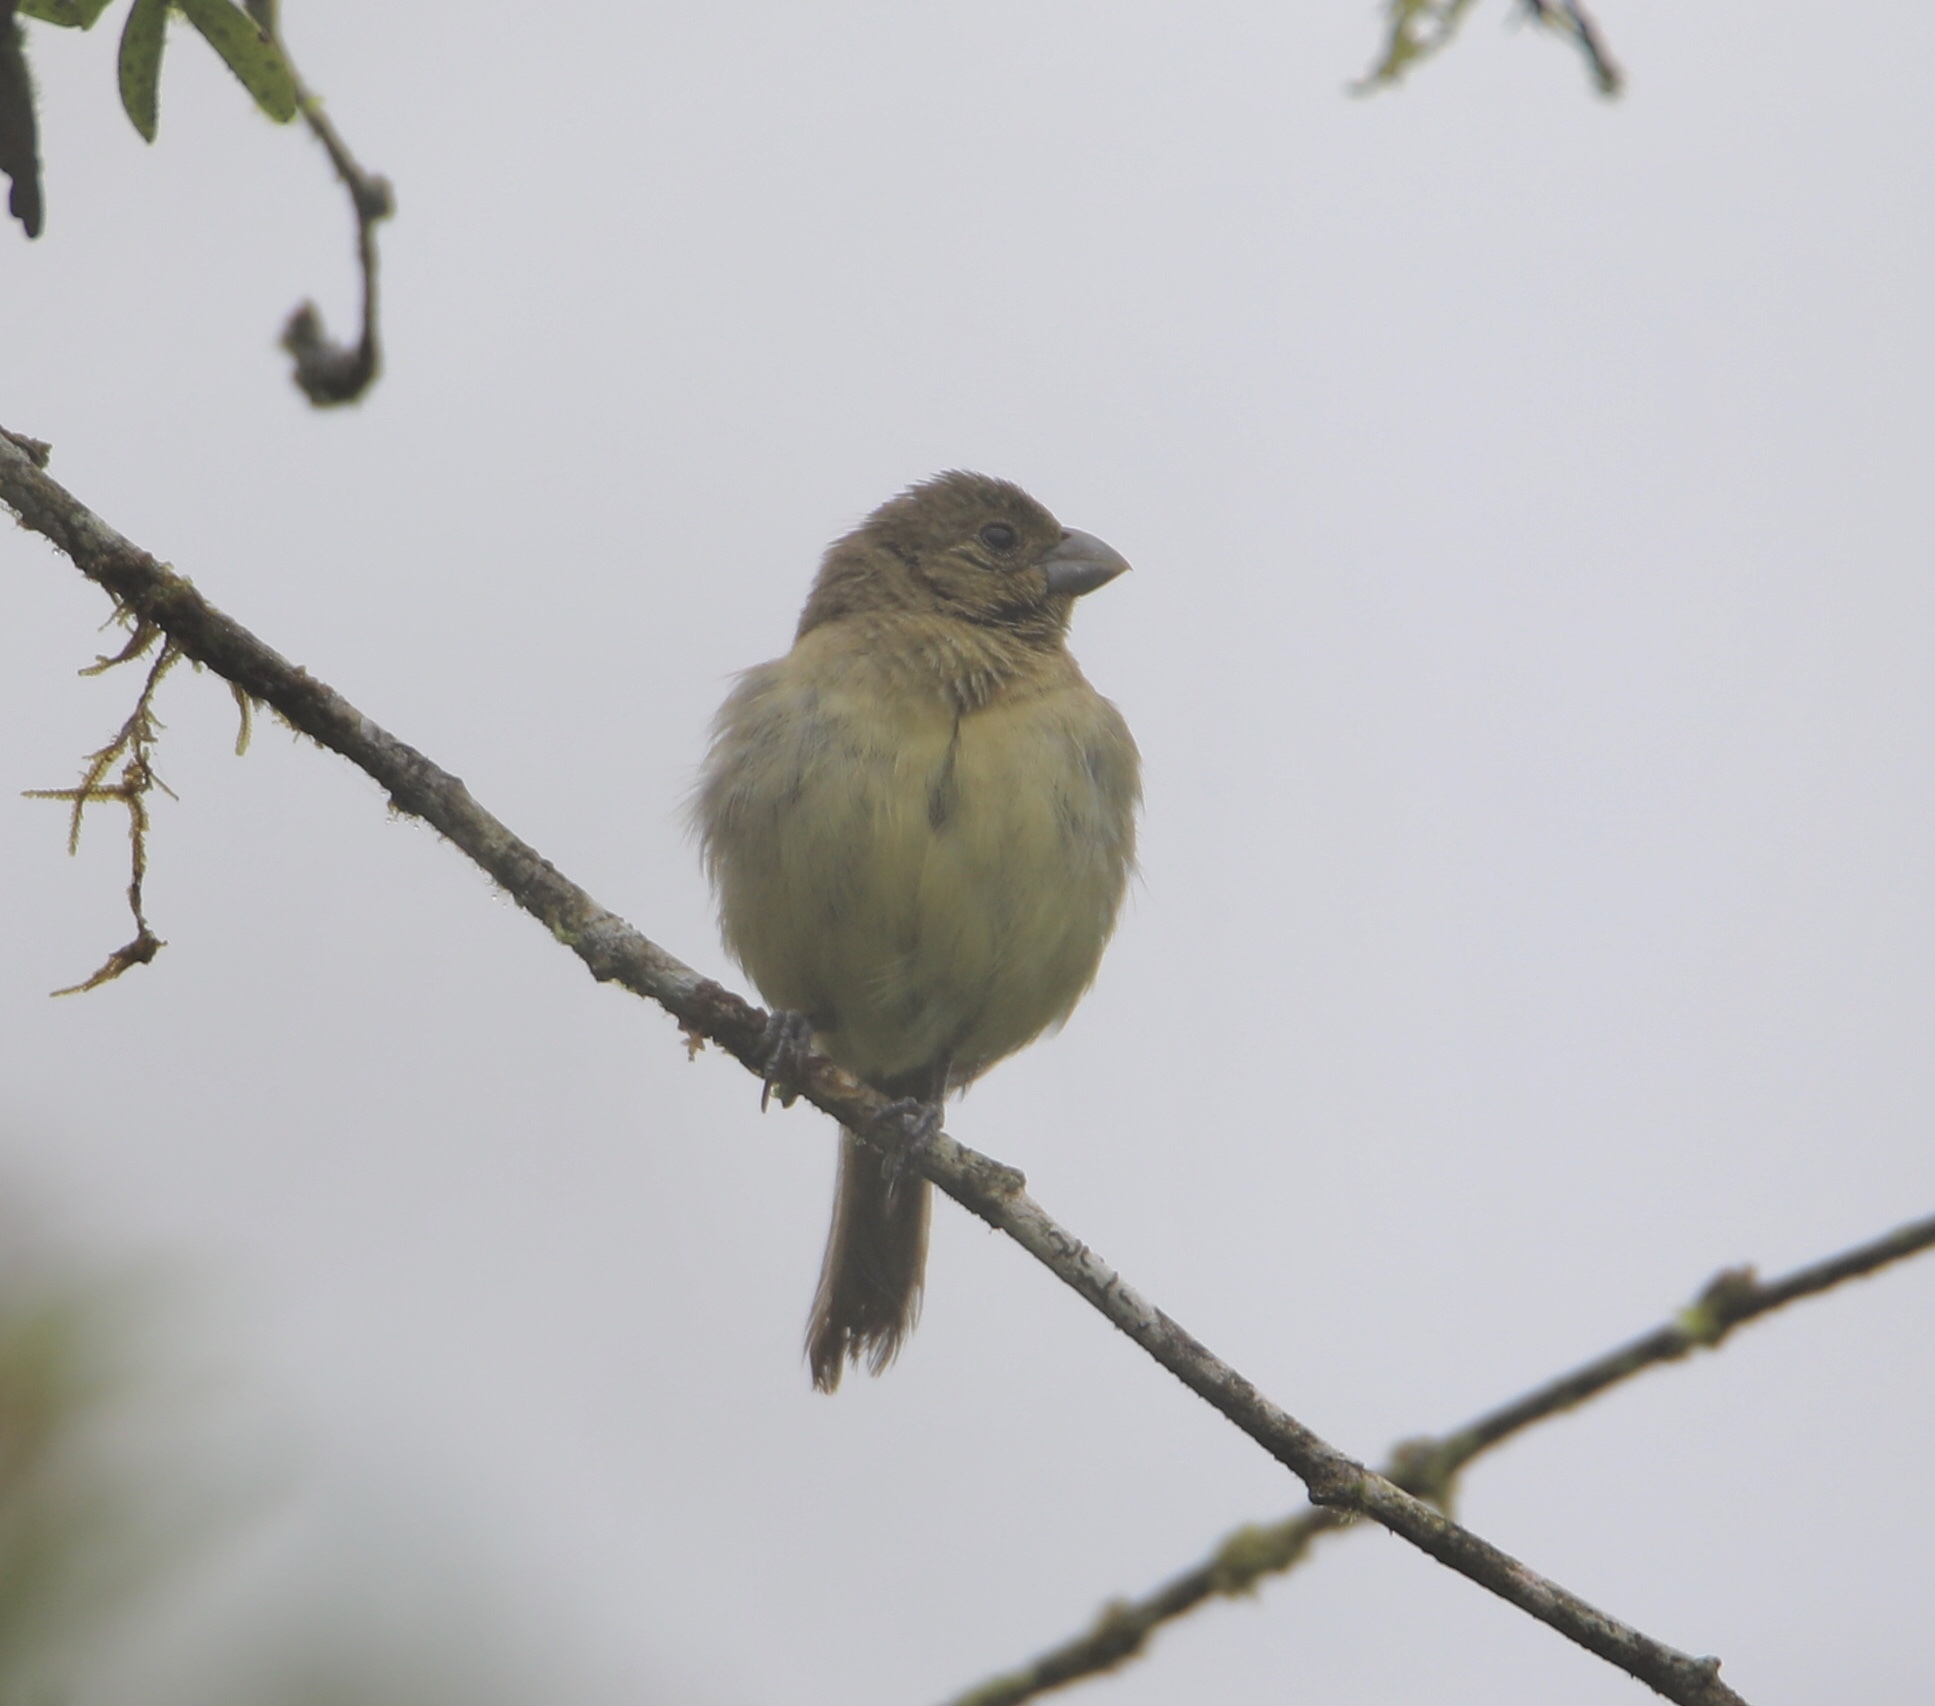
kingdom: Animalia
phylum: Chordata
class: Aves
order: Passeriformes
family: Thraupidae
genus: Sporophila
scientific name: Sporophila nigricollis
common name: Yellow-bellied seedeater
